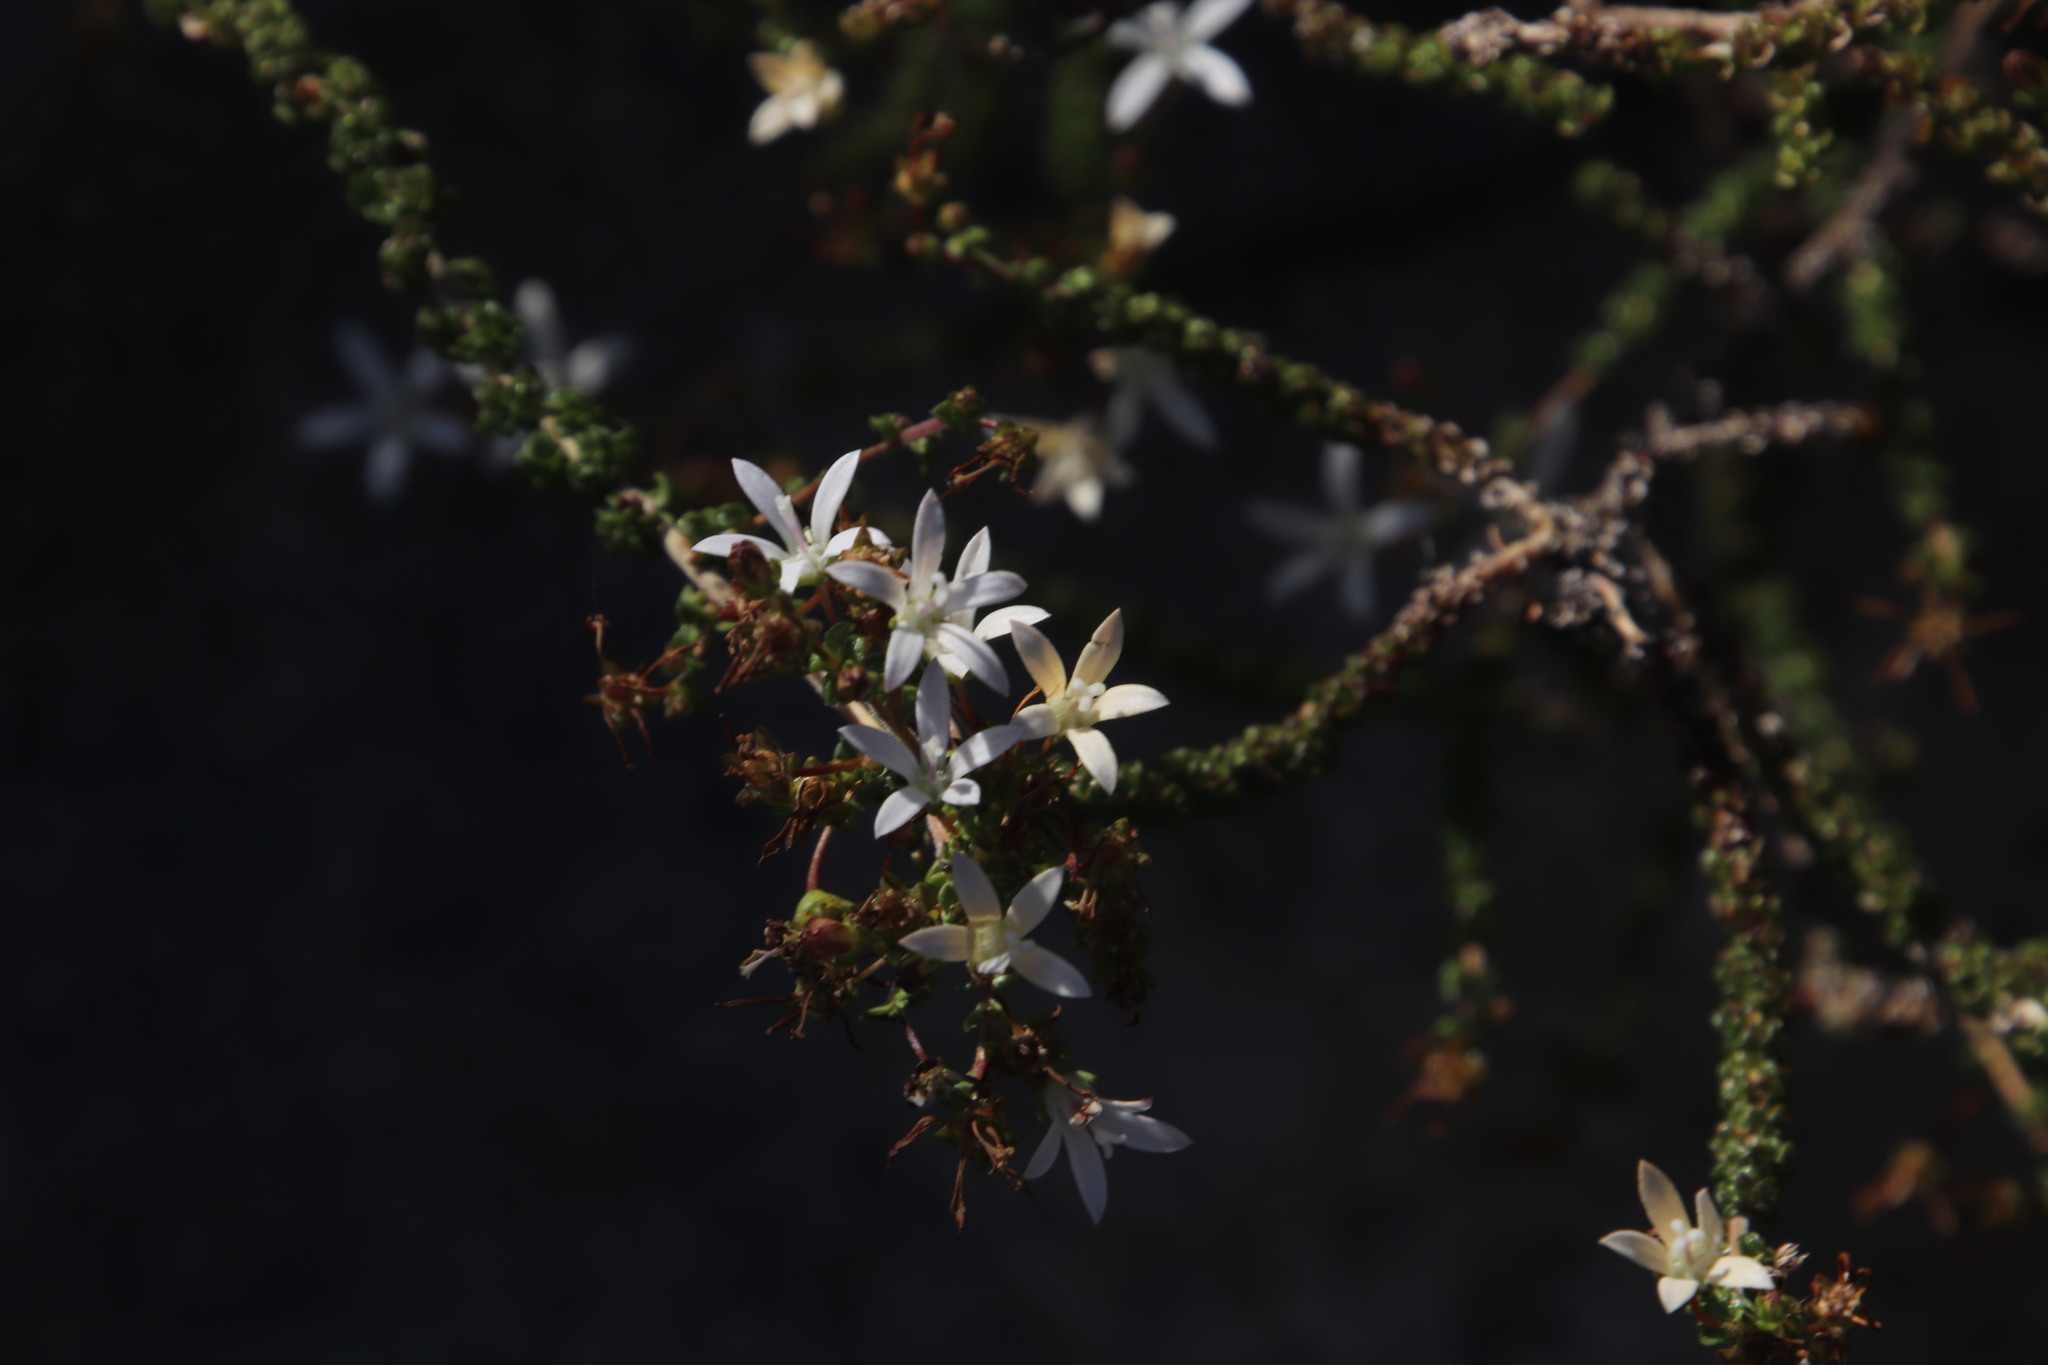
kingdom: Plantae
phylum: Tracheophyta
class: Magnoliopsida
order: Asterales
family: Campanulaceae
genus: Wahlenbergia
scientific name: Wahlenbergia tenella
